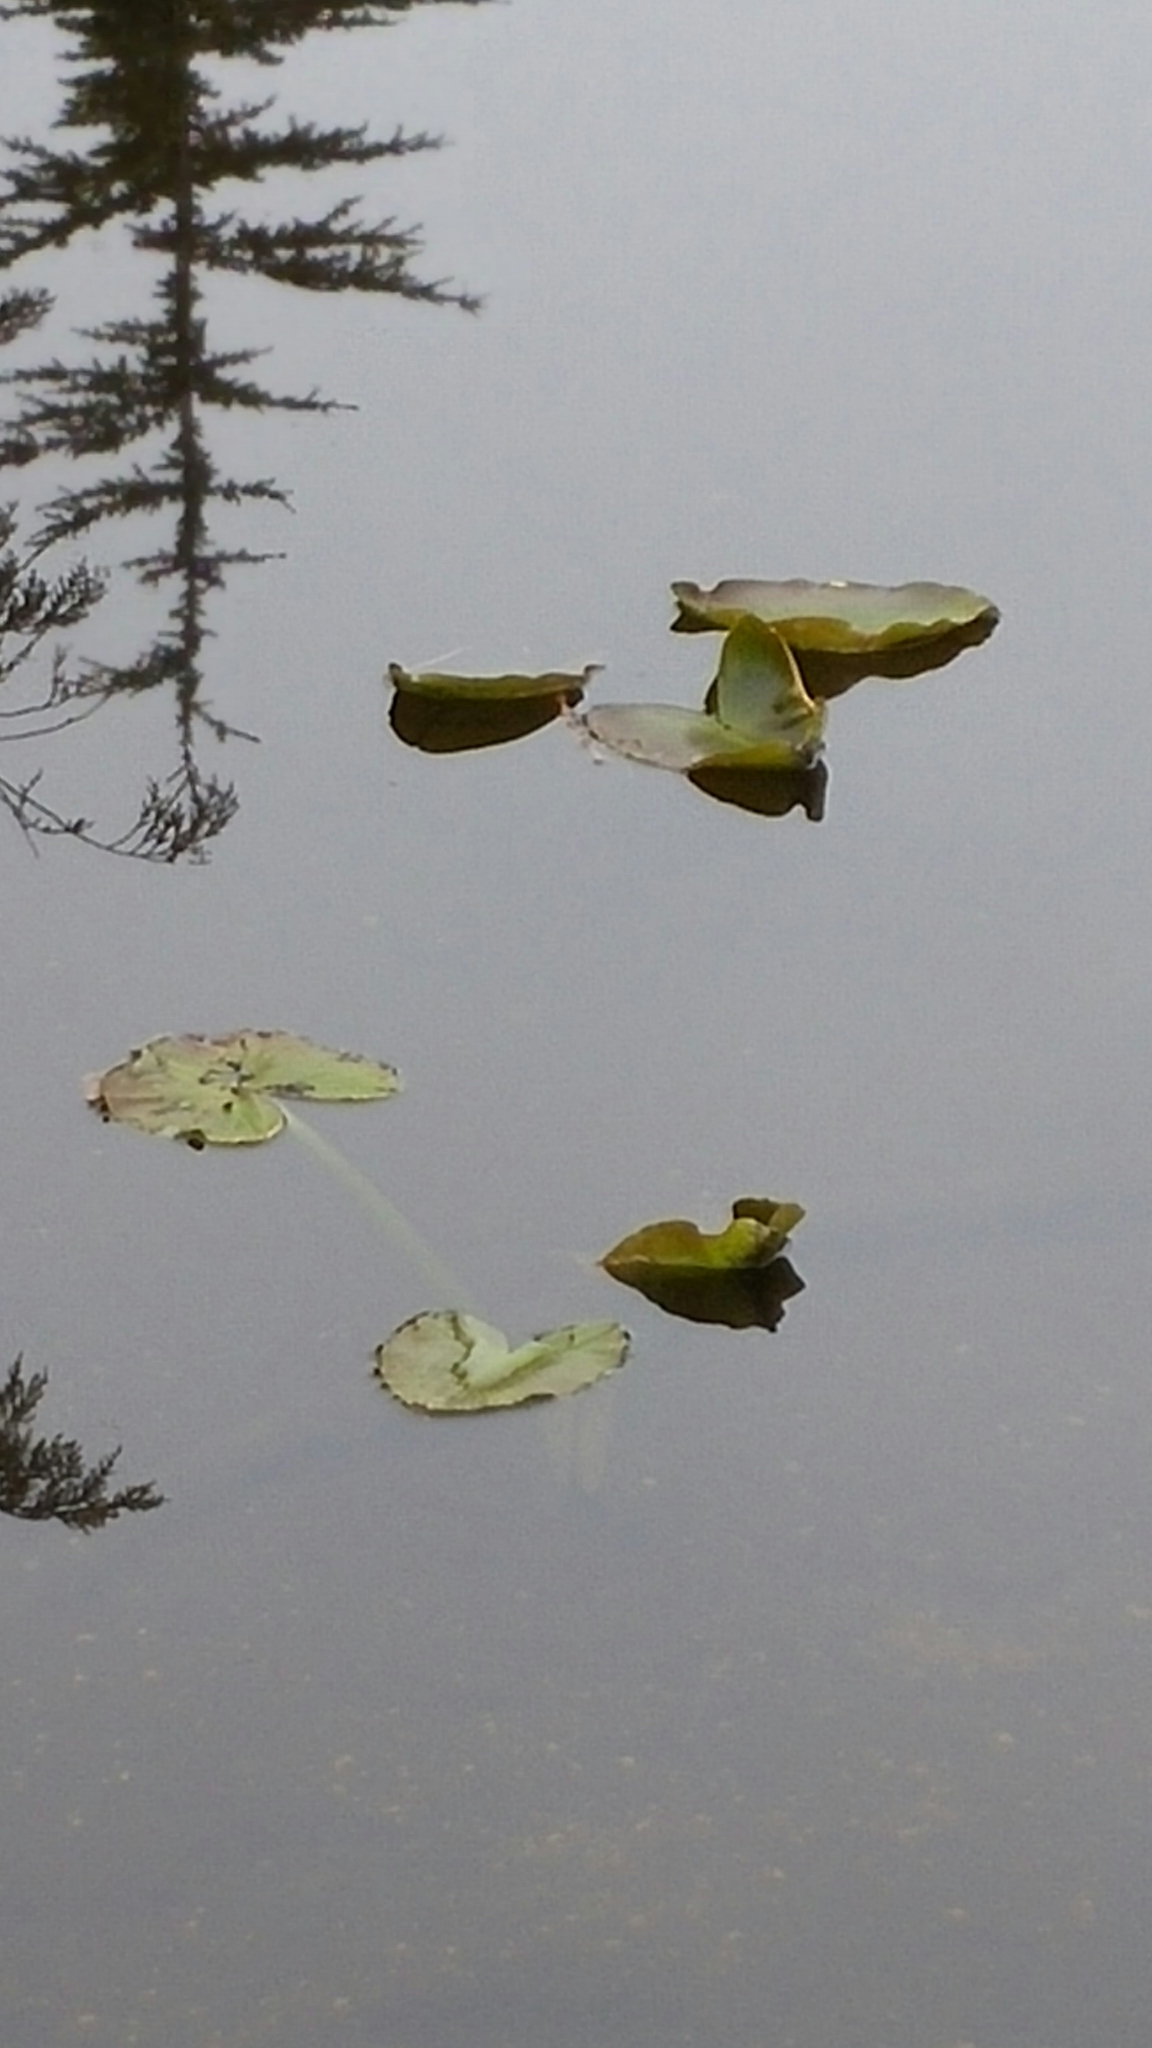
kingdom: Plantae
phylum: Tracheophyta
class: Magnoliopsida
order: Nymphaeales
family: Nymphaeaceae
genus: Nuphar
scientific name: Nuphar polysepala
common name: Rocky mountain cow-lily
